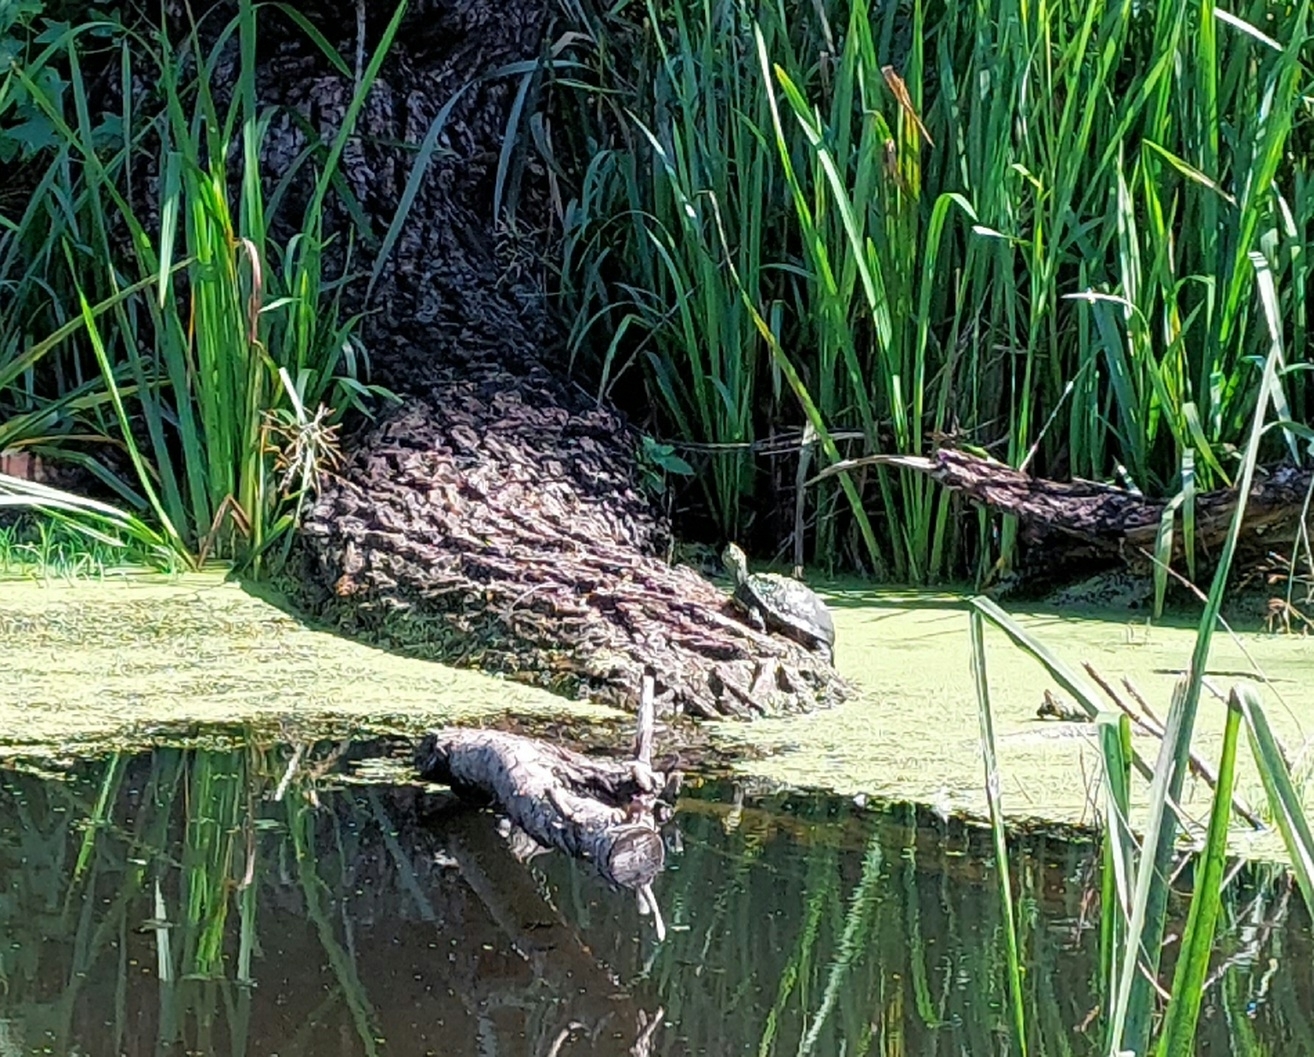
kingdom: Animalia
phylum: Chordata
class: Testudines
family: Emydidae
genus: Emys
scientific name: Emys orbicularis
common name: European pond turtle
